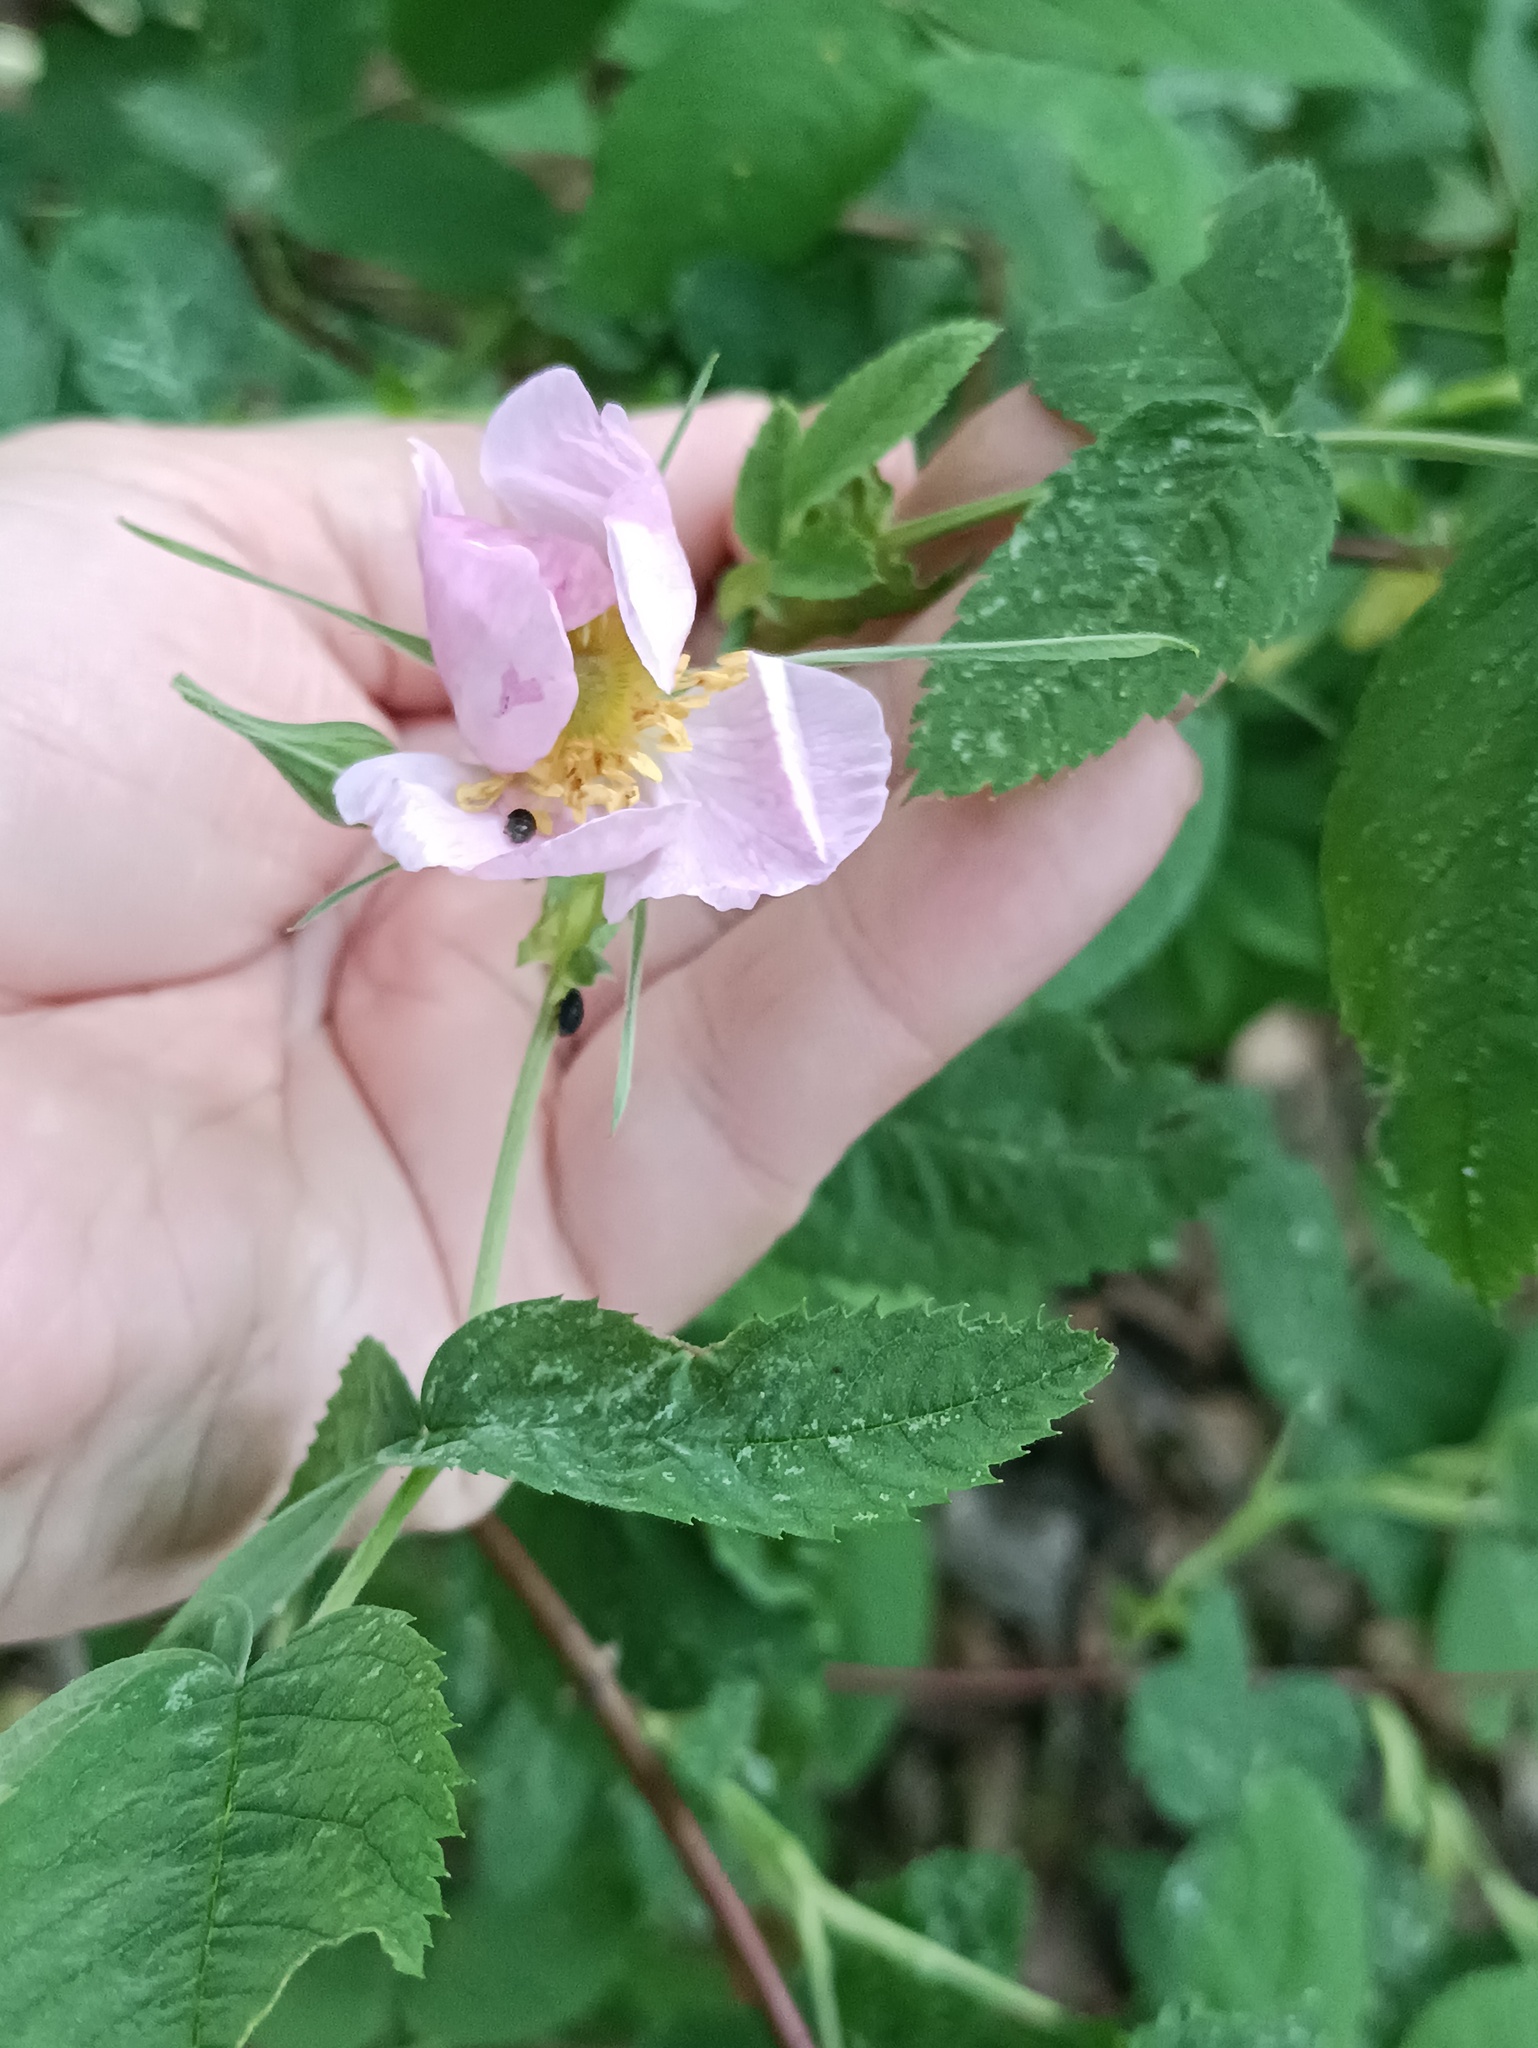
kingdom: Plantae
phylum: Tracheophyta
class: Magnoliopsida
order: Rosales
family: Rosaceae
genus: Rosa
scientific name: Rosa majalis
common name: Cinnamon rose
